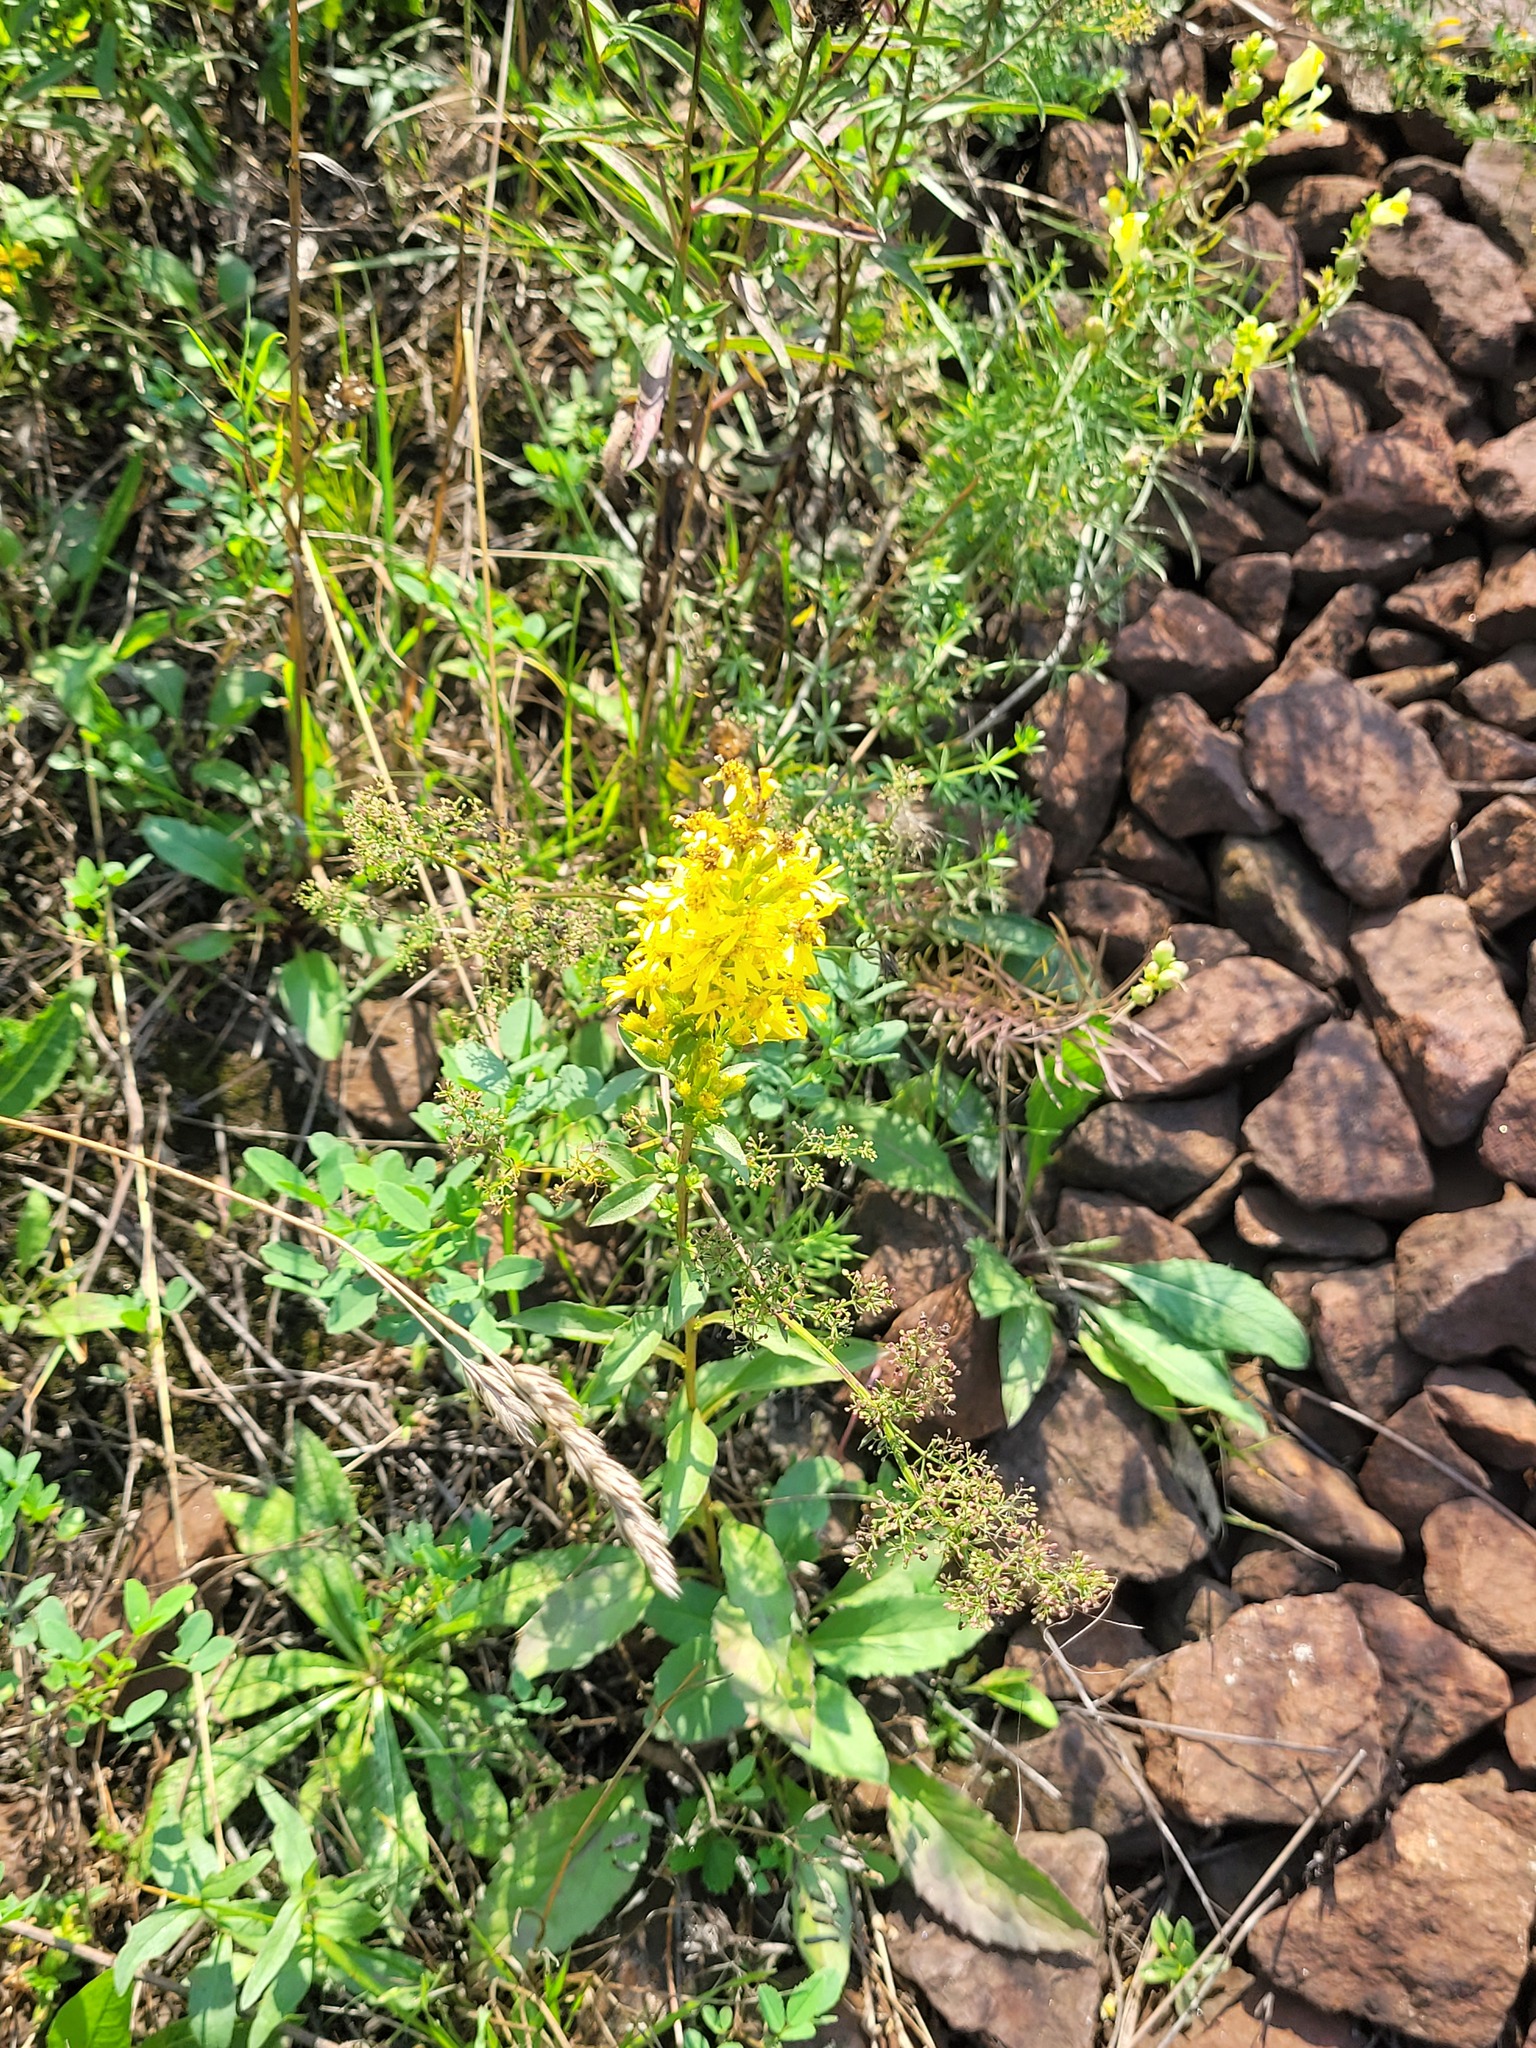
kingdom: Plantae
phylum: Tracheophyta
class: Magnoliopsida
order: Asterales
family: Asteraceae
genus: Solidago
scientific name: Solidago virgaurea
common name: Goldenrod
